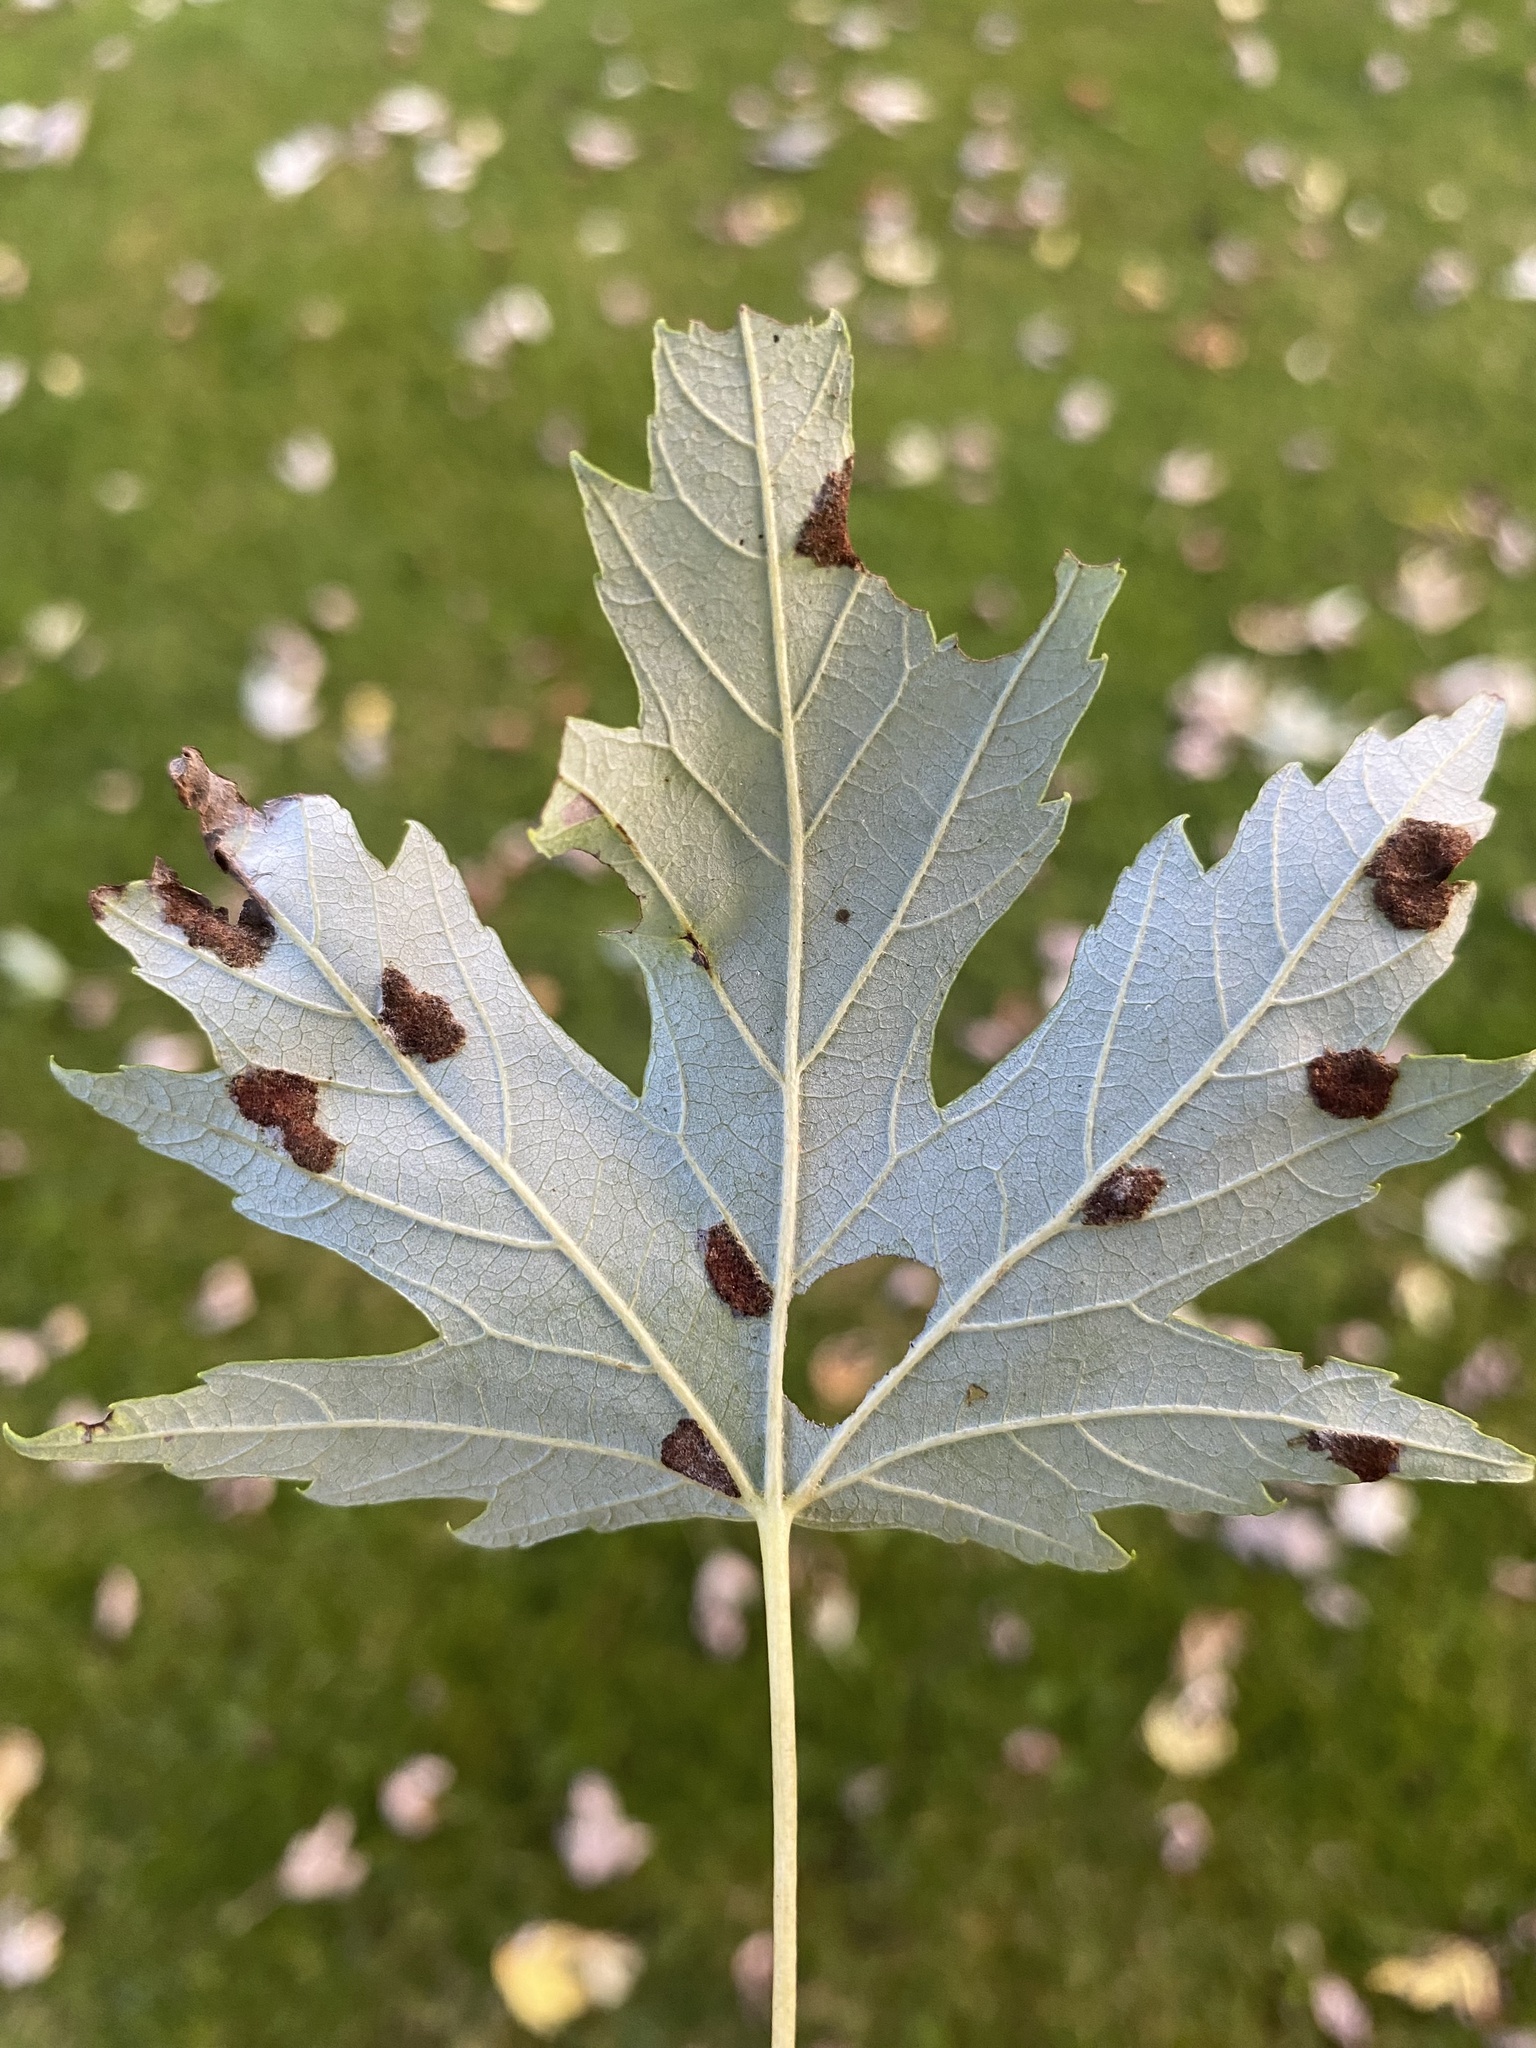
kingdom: Animalia
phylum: Arthropoda
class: Arachnida
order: Trombidiformes
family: Eriophyidae
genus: Eriophyes
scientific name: Eriophyes
